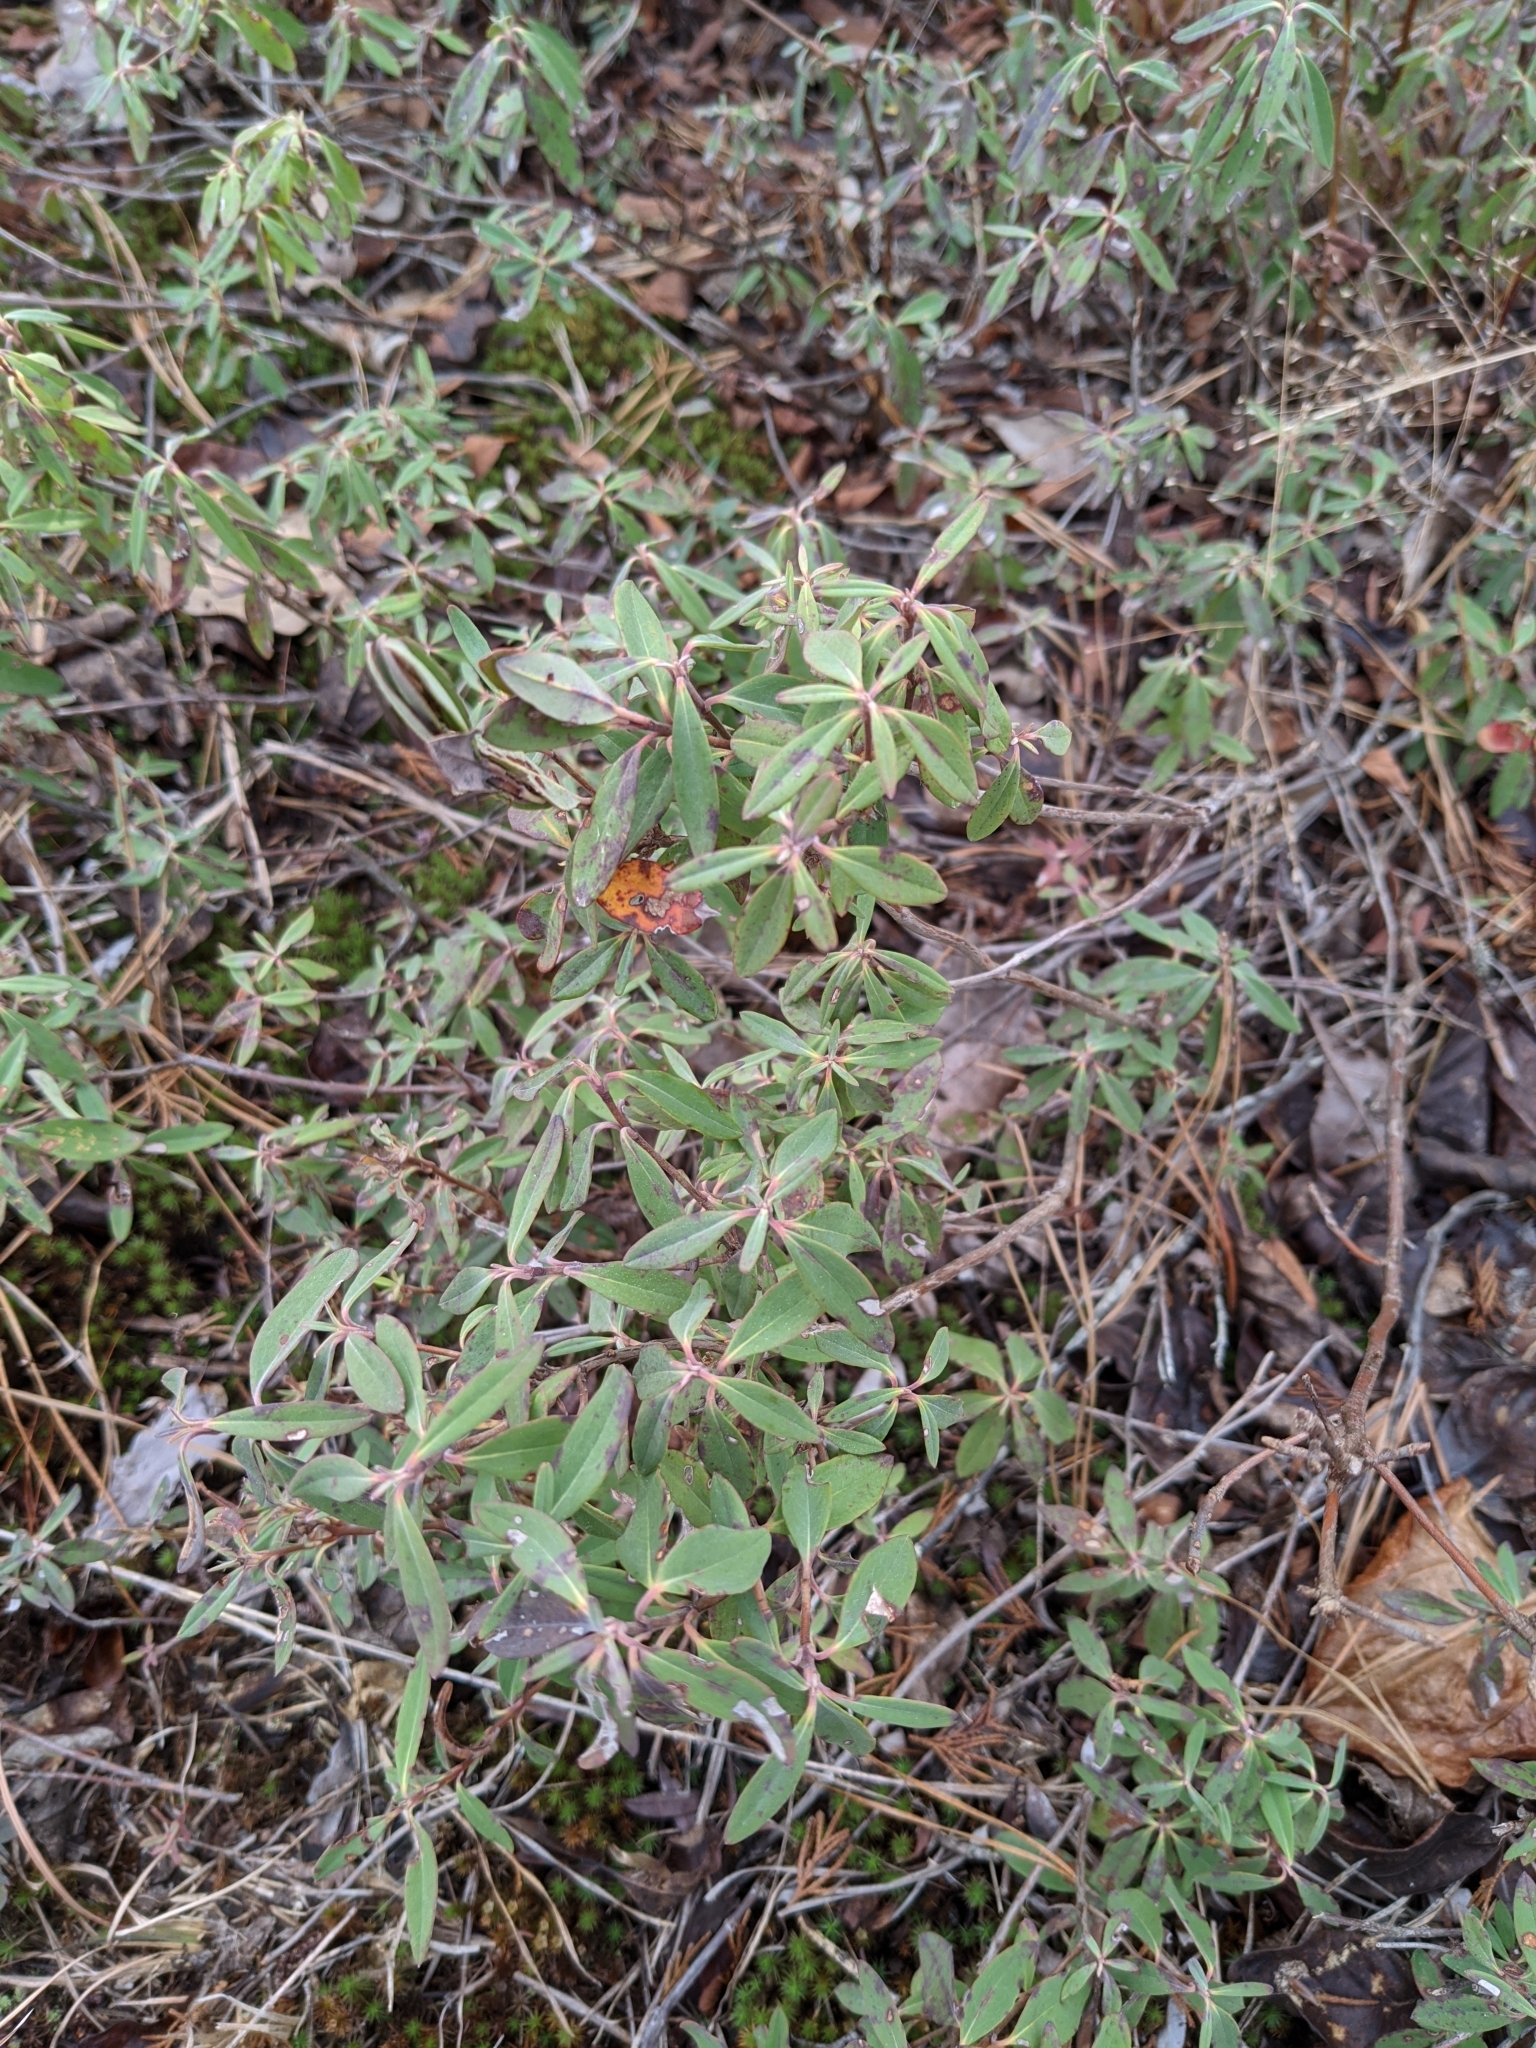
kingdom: Plantae
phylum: Tracheophyta
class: Magnoliopsida
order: Ericales
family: Ericaceae
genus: Kalmia
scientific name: Kalmia angustifolia
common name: Sheep-laurel
